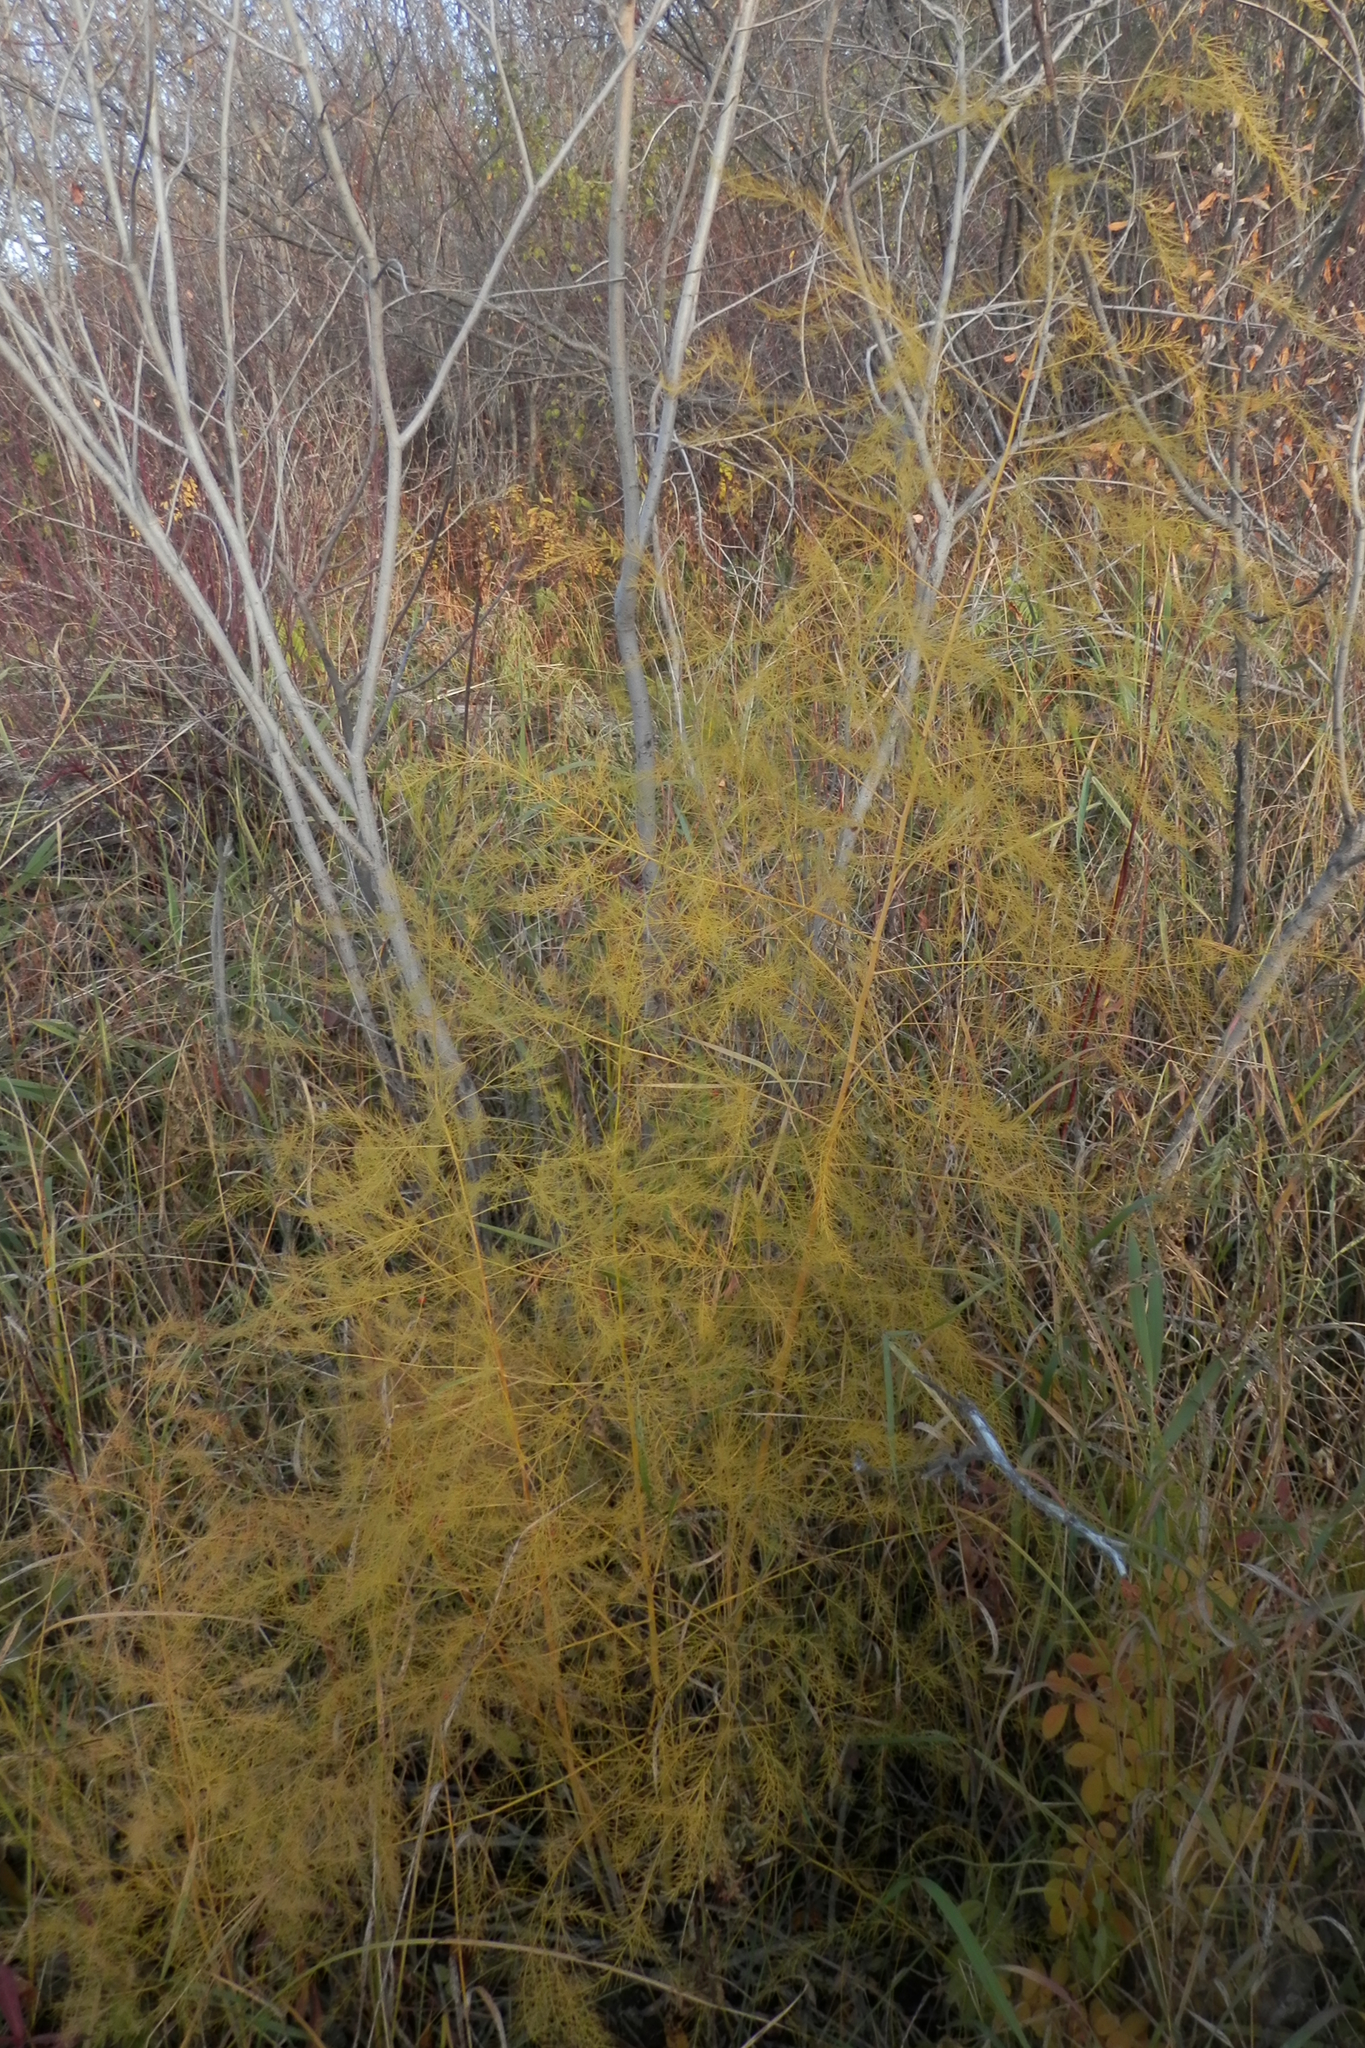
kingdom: Plantae
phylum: Tracheophyta
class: Liliopsida
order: Asparagales
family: Asparagaceae
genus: Asparagus
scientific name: Asparagus officinalis
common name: Garden asparagus
